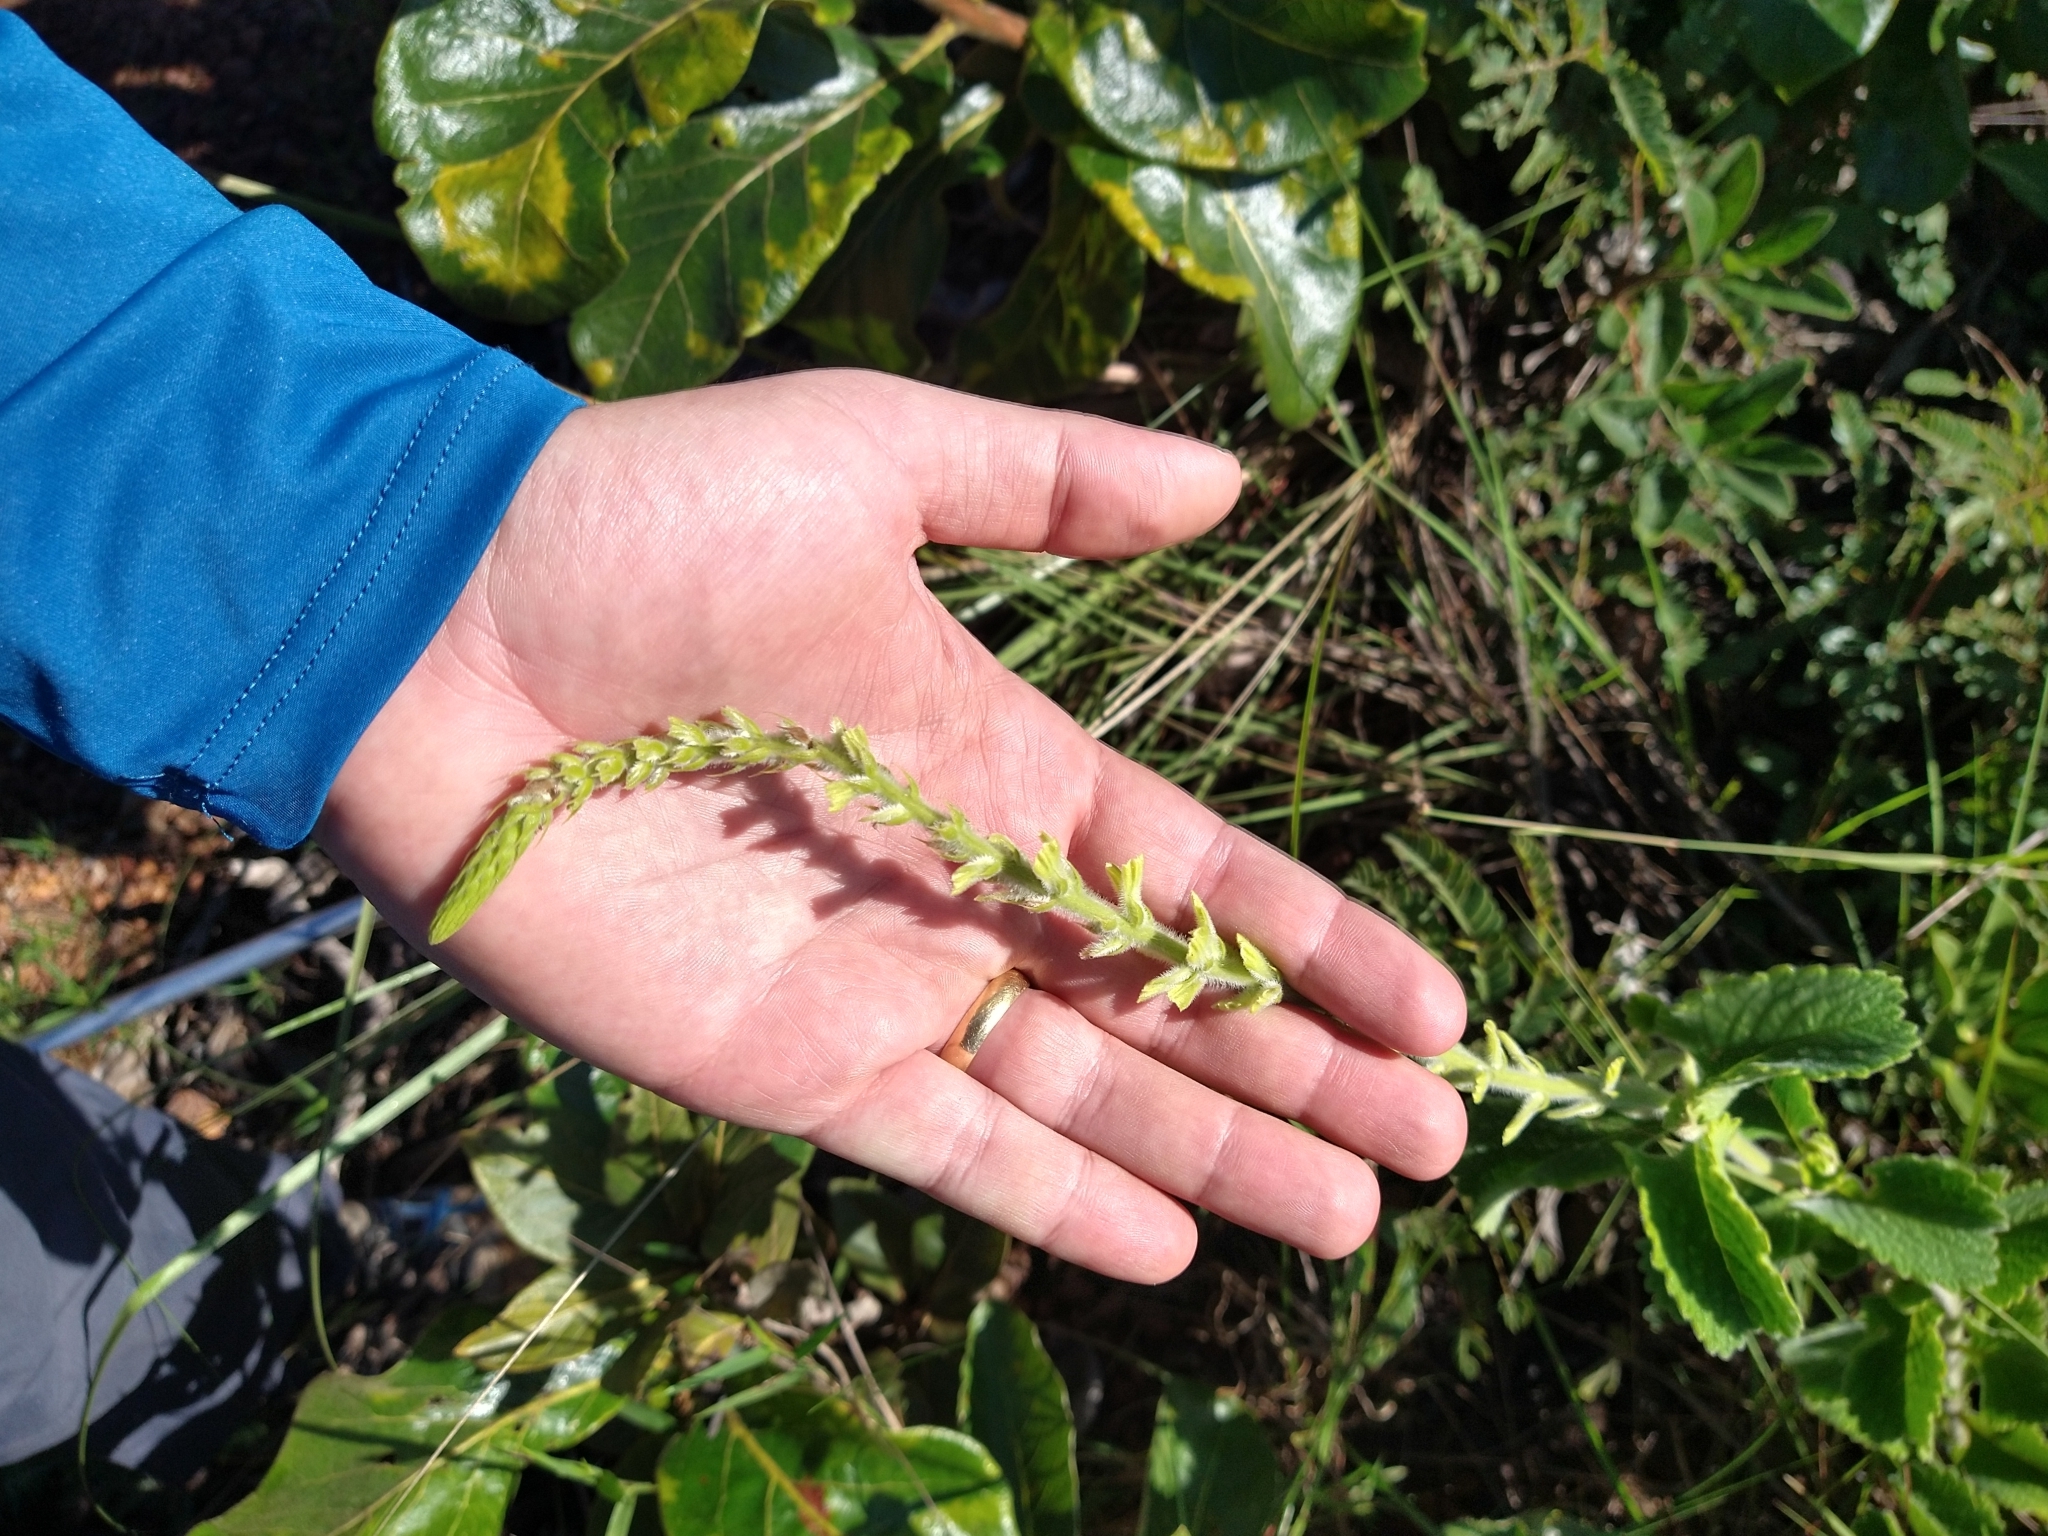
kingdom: Plantae
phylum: Tracheophyta
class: Magnoliopsida
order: Lamiales
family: Verbenaceae
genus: Stachytarpheta
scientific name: Stachytarpheta longispicata
